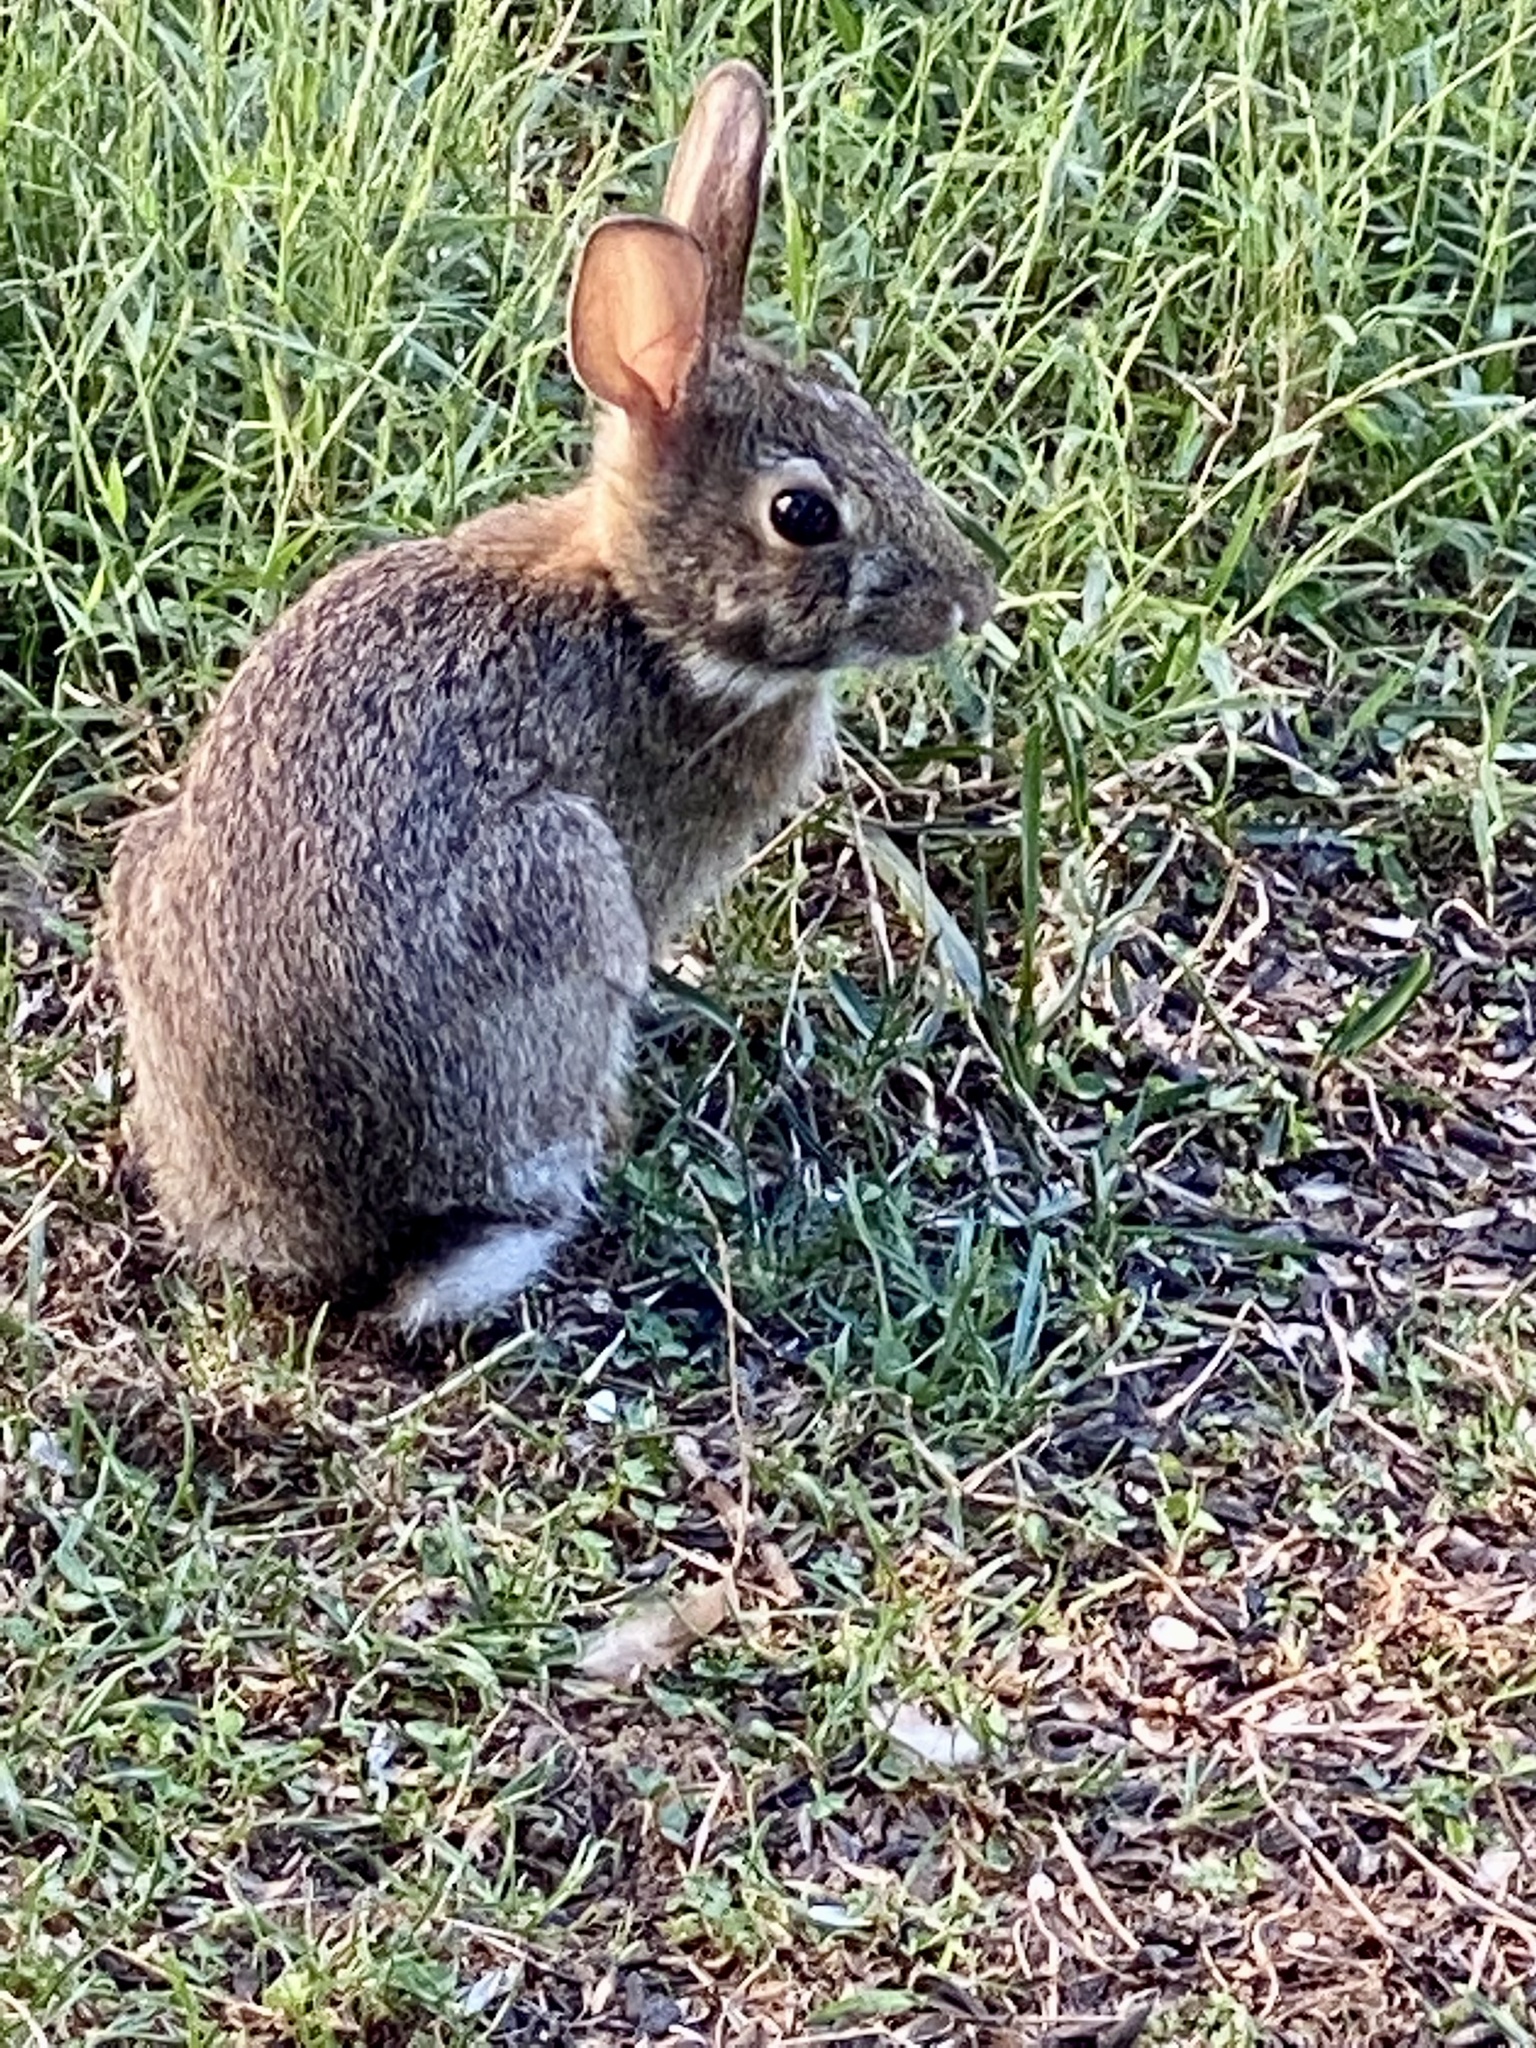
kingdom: Animalia
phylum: Chordata
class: Mammalia
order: Lagomorpha
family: Leporidae
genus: Sylvilagus
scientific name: Sylvilagus floridanus
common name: Eastern cottontail
